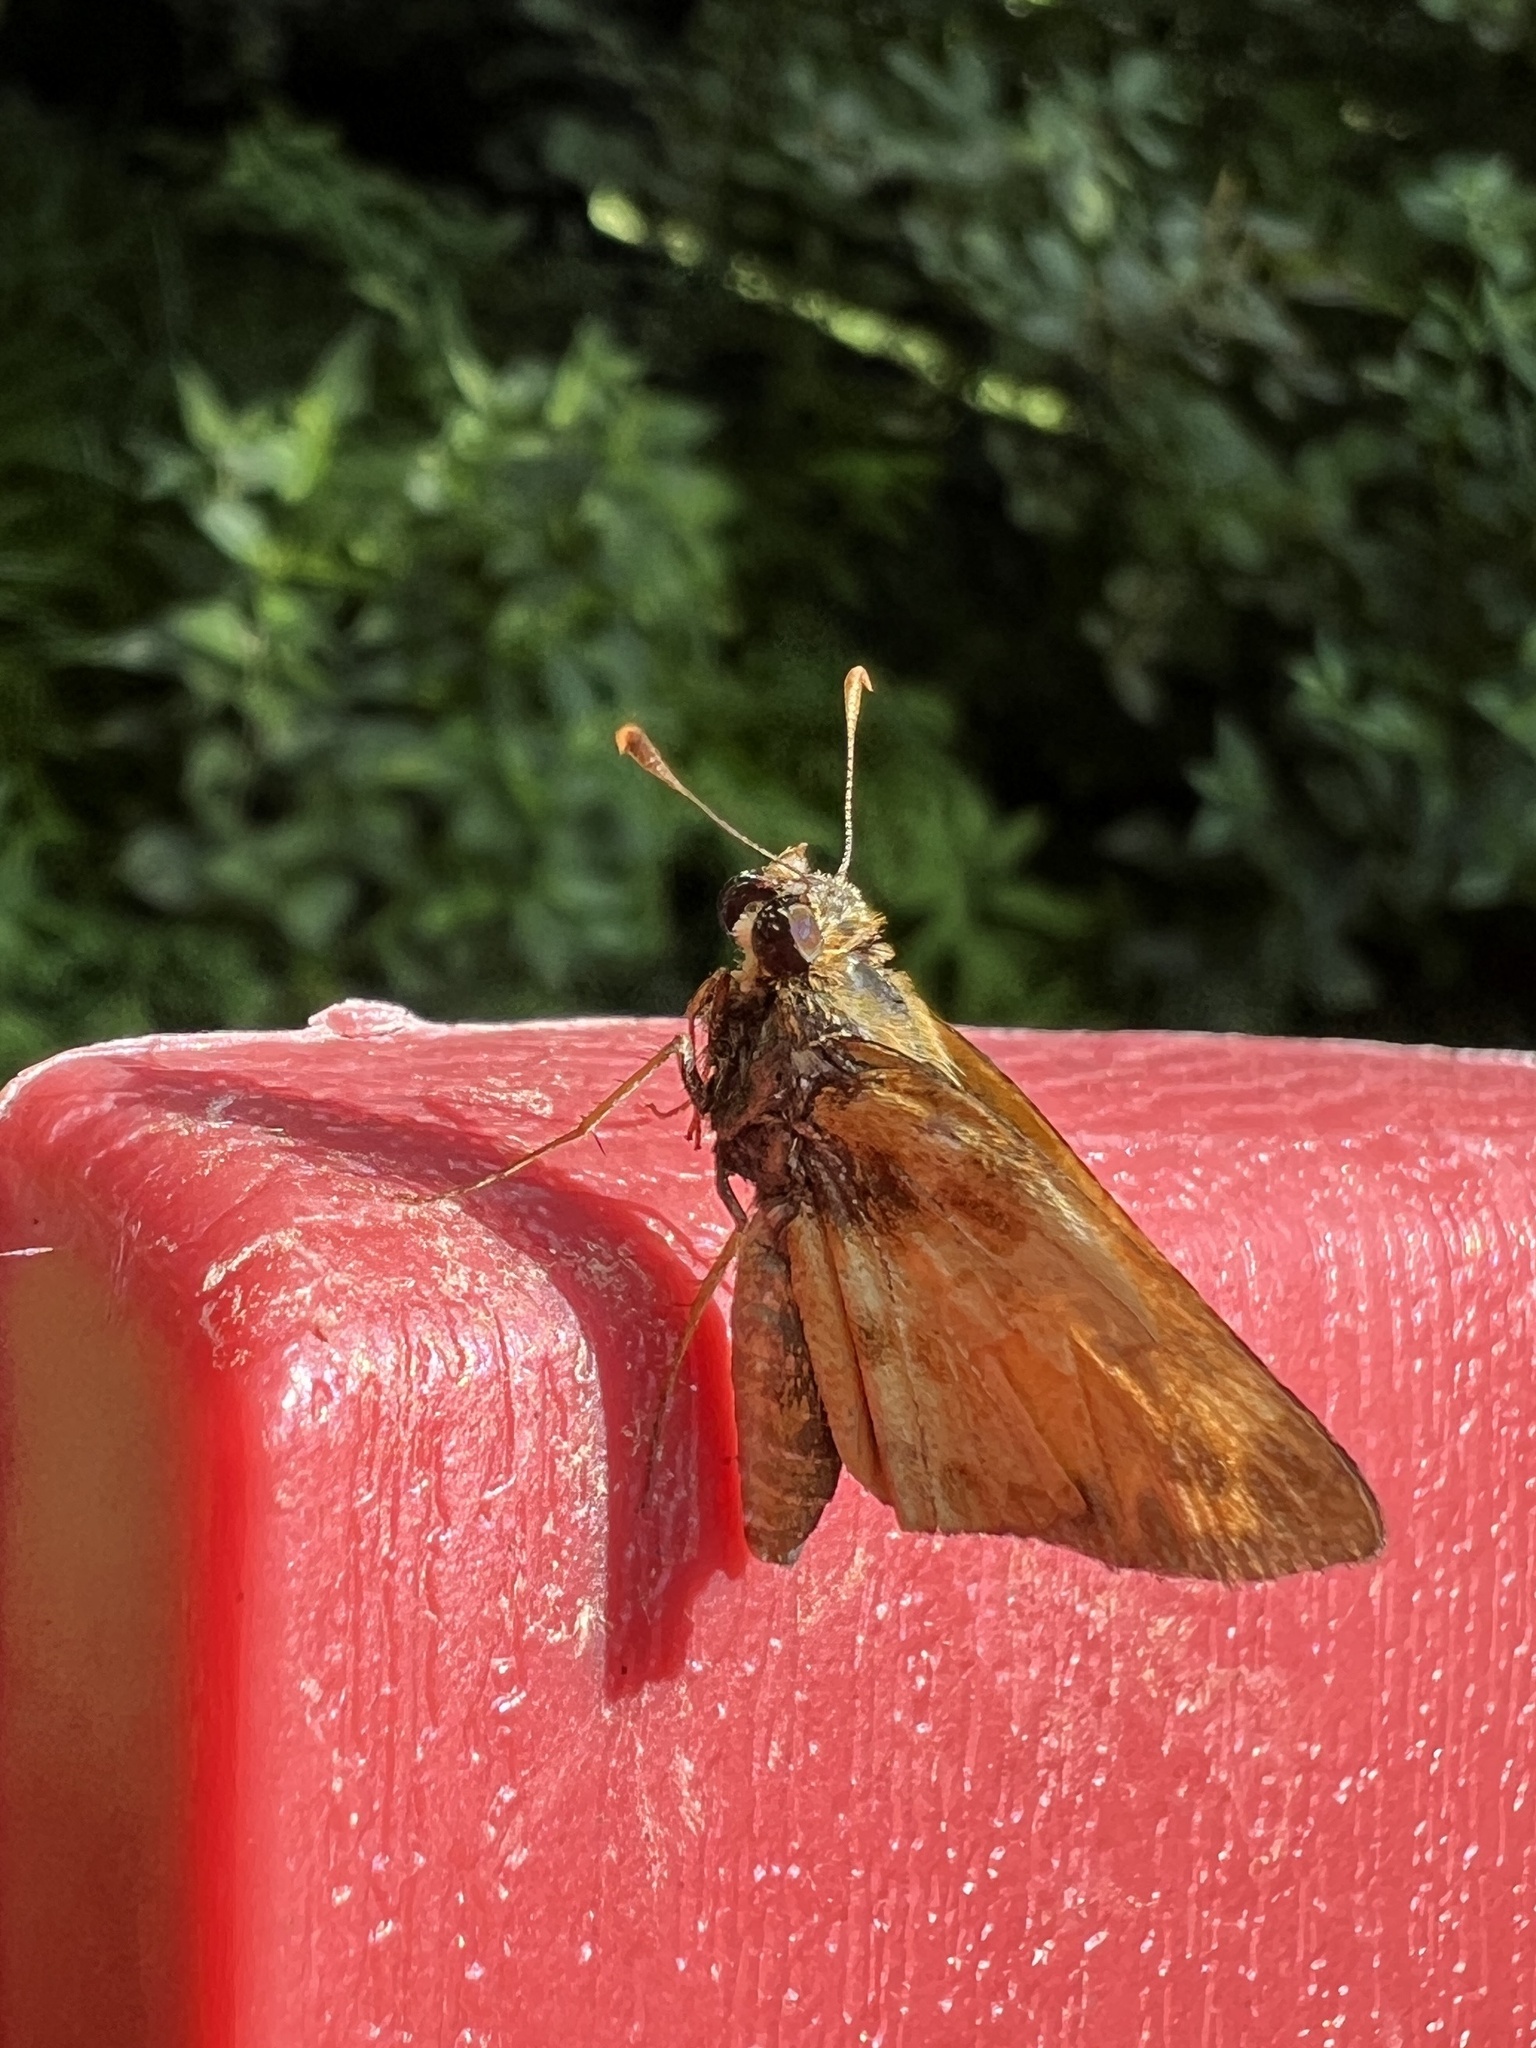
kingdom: Animalia
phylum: Arthropoda
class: Insecta
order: Lepidoptera
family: Hesperiidae
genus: Lon
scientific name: Lon zabulon
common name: Zabulon skipper
